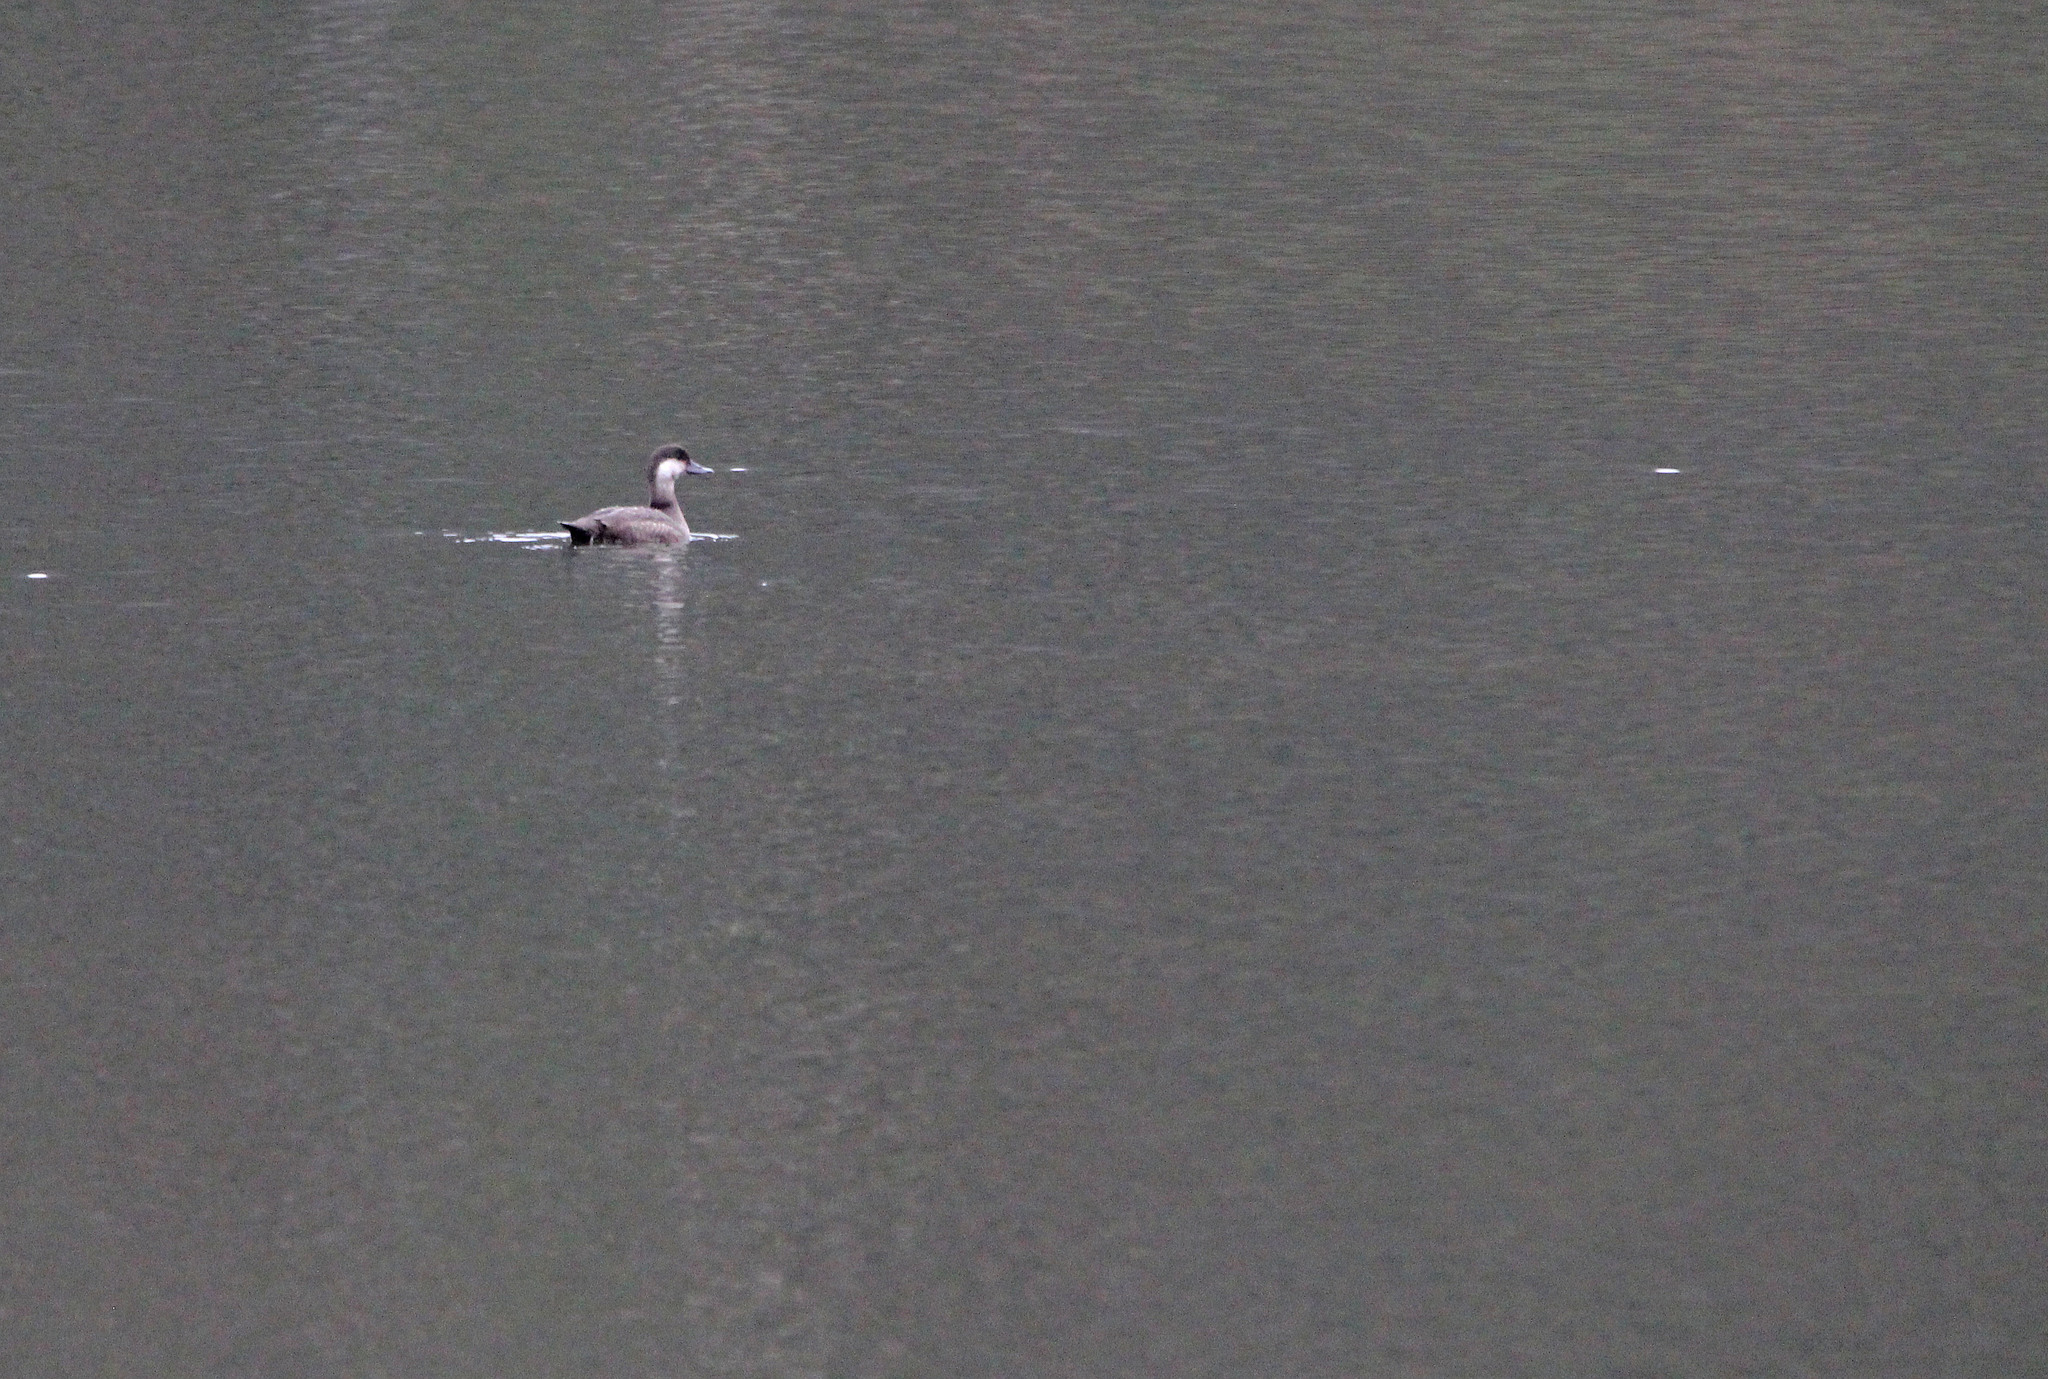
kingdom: Animalia
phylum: Chordata
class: Aves
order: Anseriformes
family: Anatidae
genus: Melanitta
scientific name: Melanitta americana
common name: Black scoter
